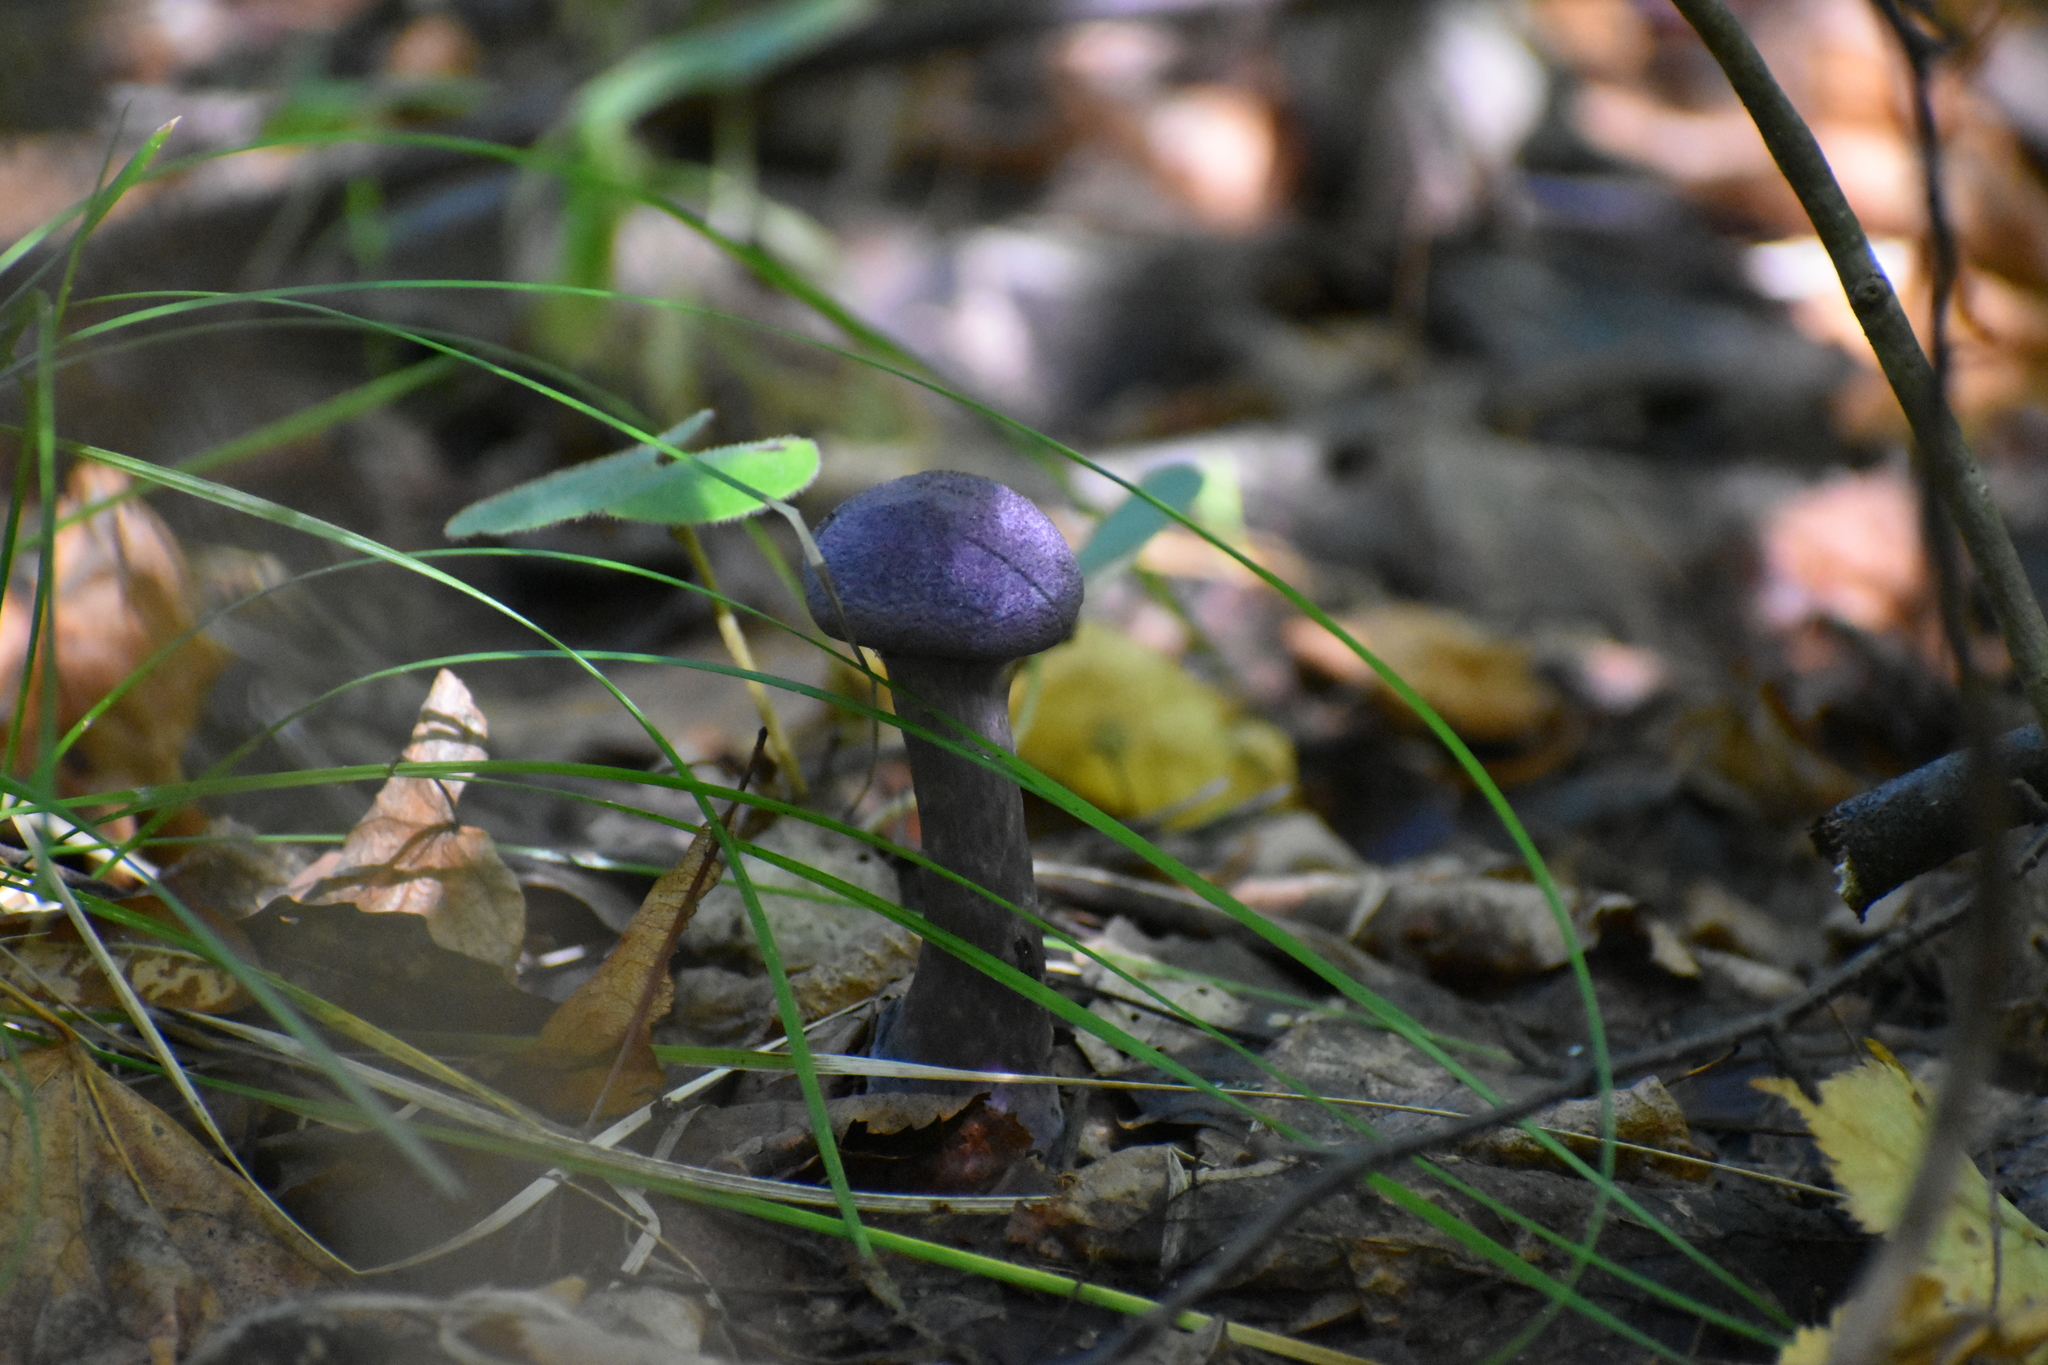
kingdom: Fungi
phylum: Basidiomycota
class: Agaricomycetes
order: Agaricales
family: Cortinariaceae
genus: Cortinarius
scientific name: Cortinarius violaceus
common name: Violet webcap
